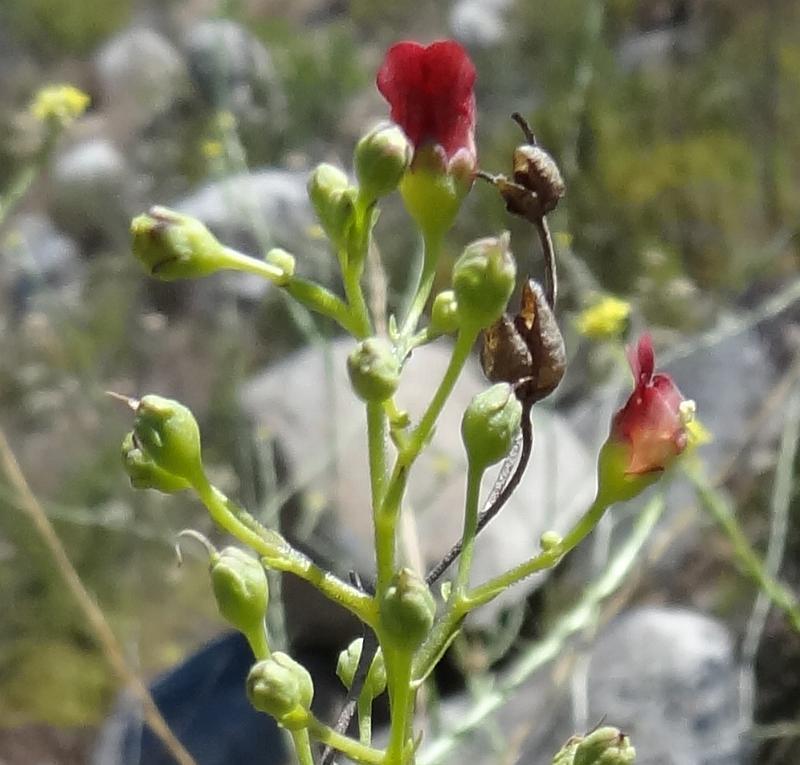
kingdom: Plantae
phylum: Tracheophyta
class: Magnoliopsida
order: Lamiales
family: Scrophulariaceae
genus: Scrophularia
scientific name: Scrophularia californica
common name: California figwort
